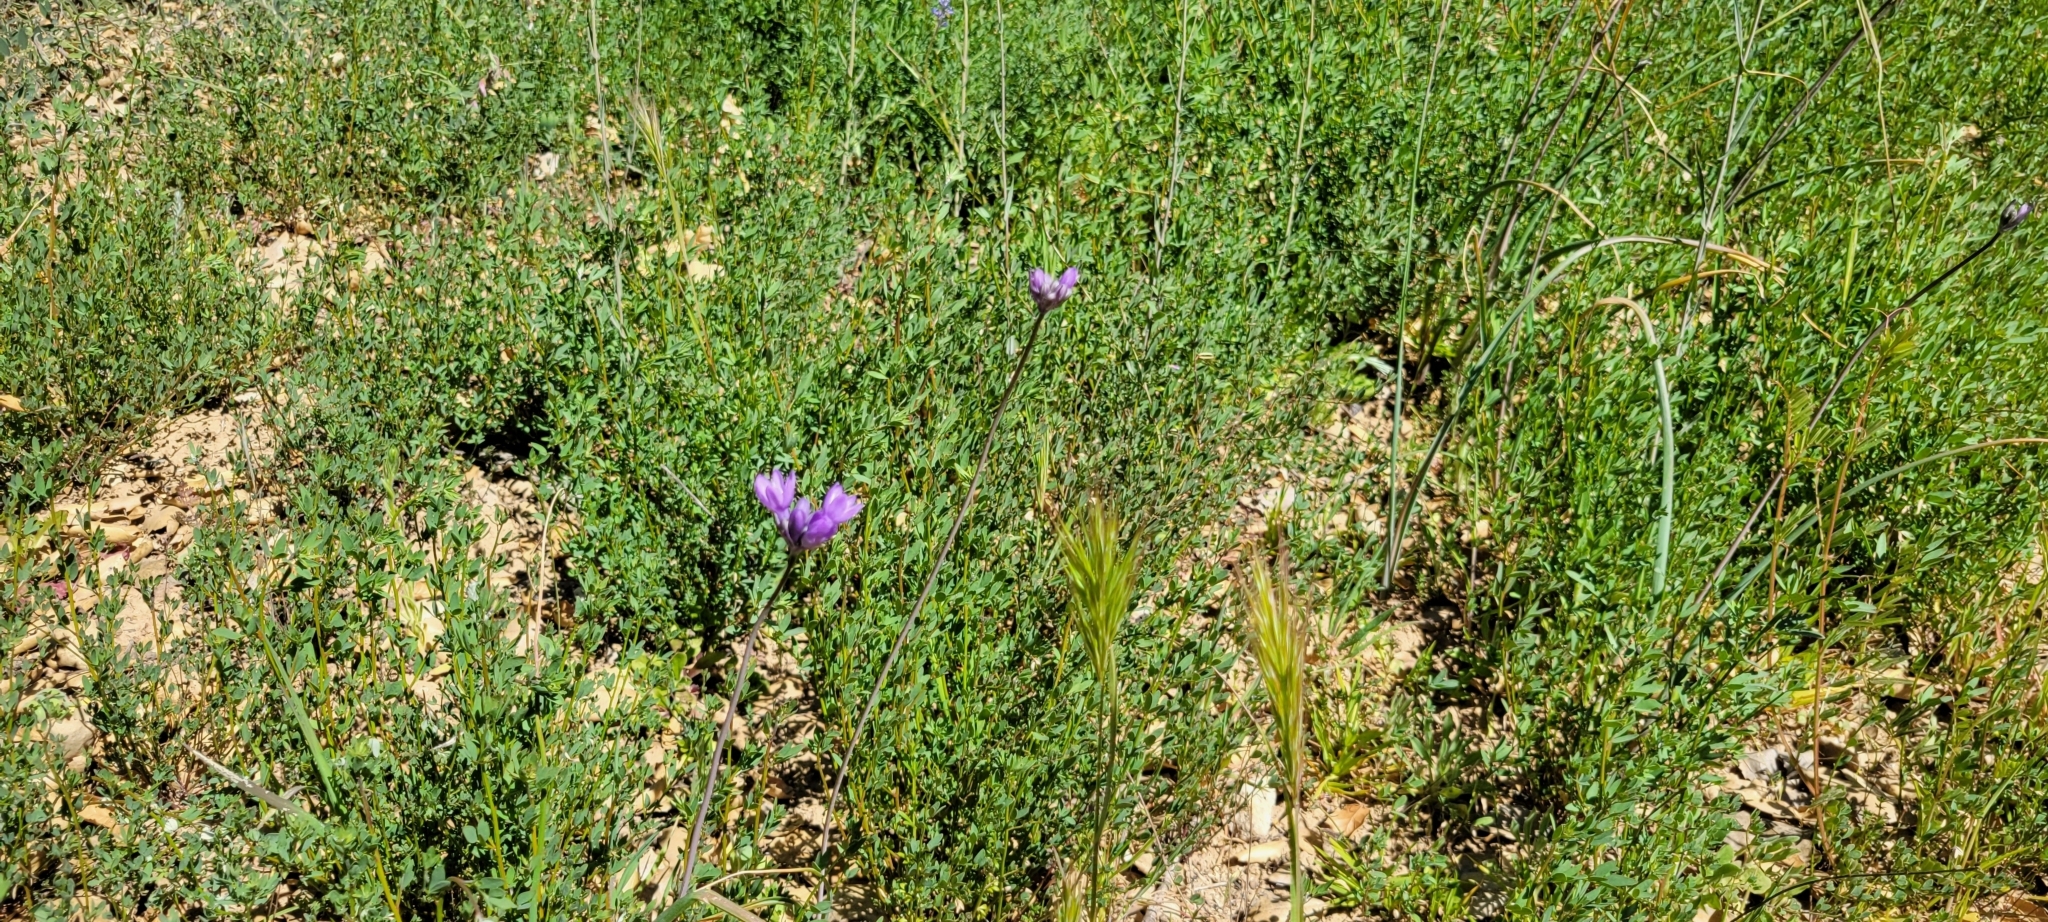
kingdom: Plantae
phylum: Tracheophyta
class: Liliopsida
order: Asparagales
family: Asparagaceae
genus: Dipterostemon
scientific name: Dipterostemon capitatus
